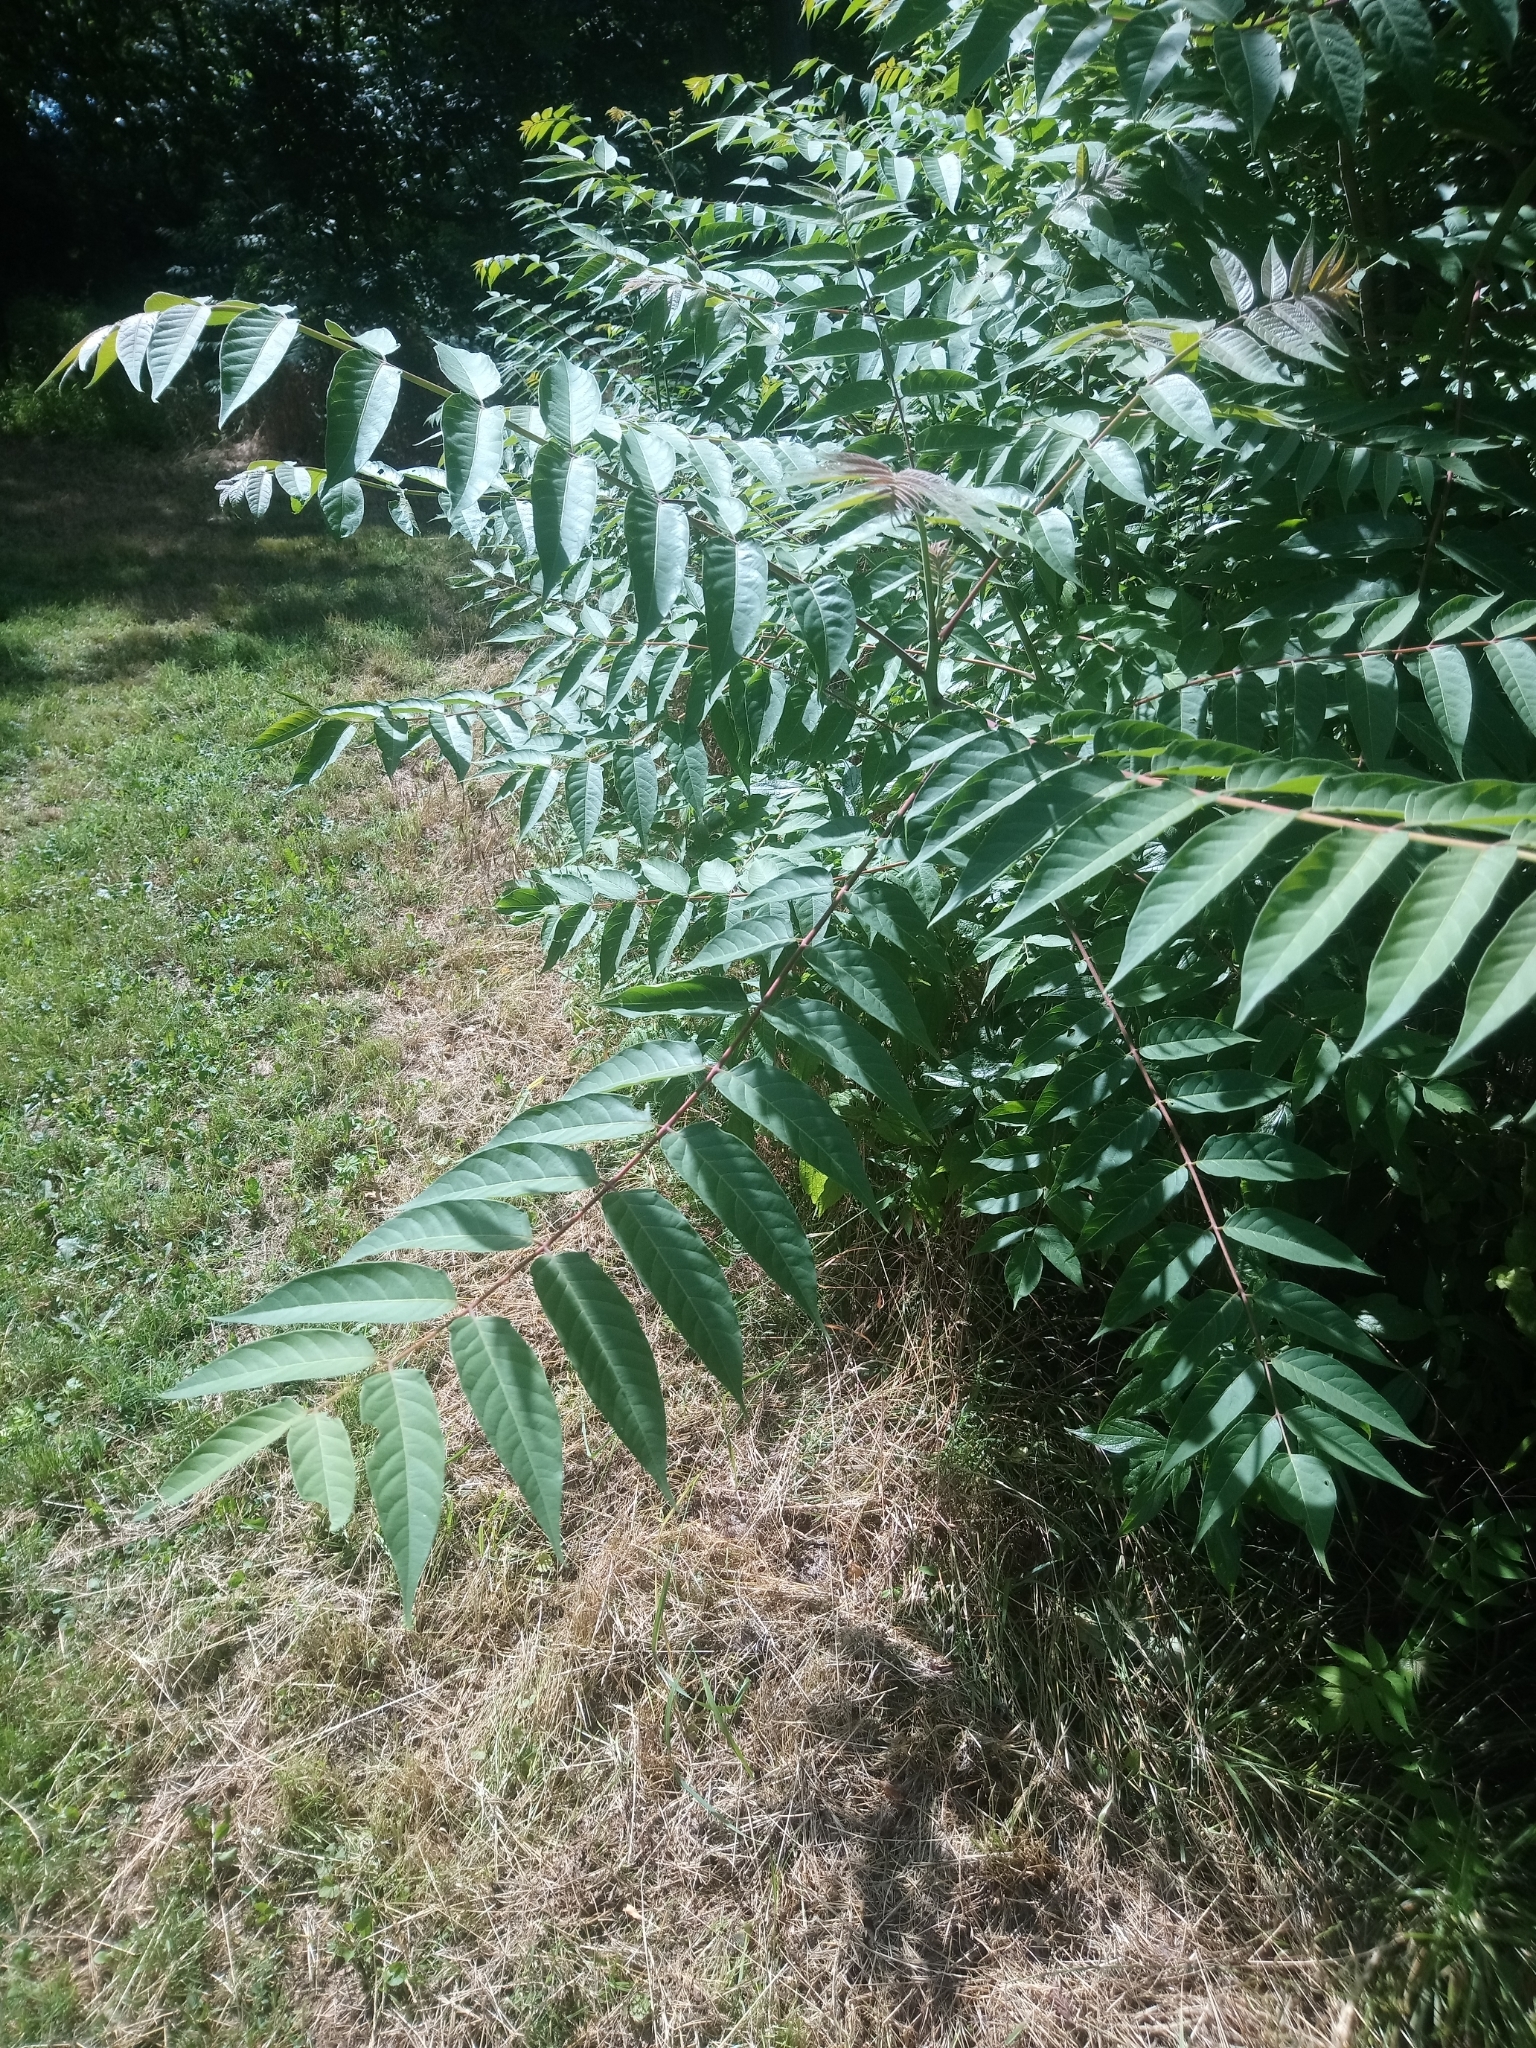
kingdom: Plantae
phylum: Tracheophyta
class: Magnoliopsida
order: Sapindales
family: Simaroubaceae
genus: Ailanthus
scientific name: Ailanthus altissima
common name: Tree-of-heaven
